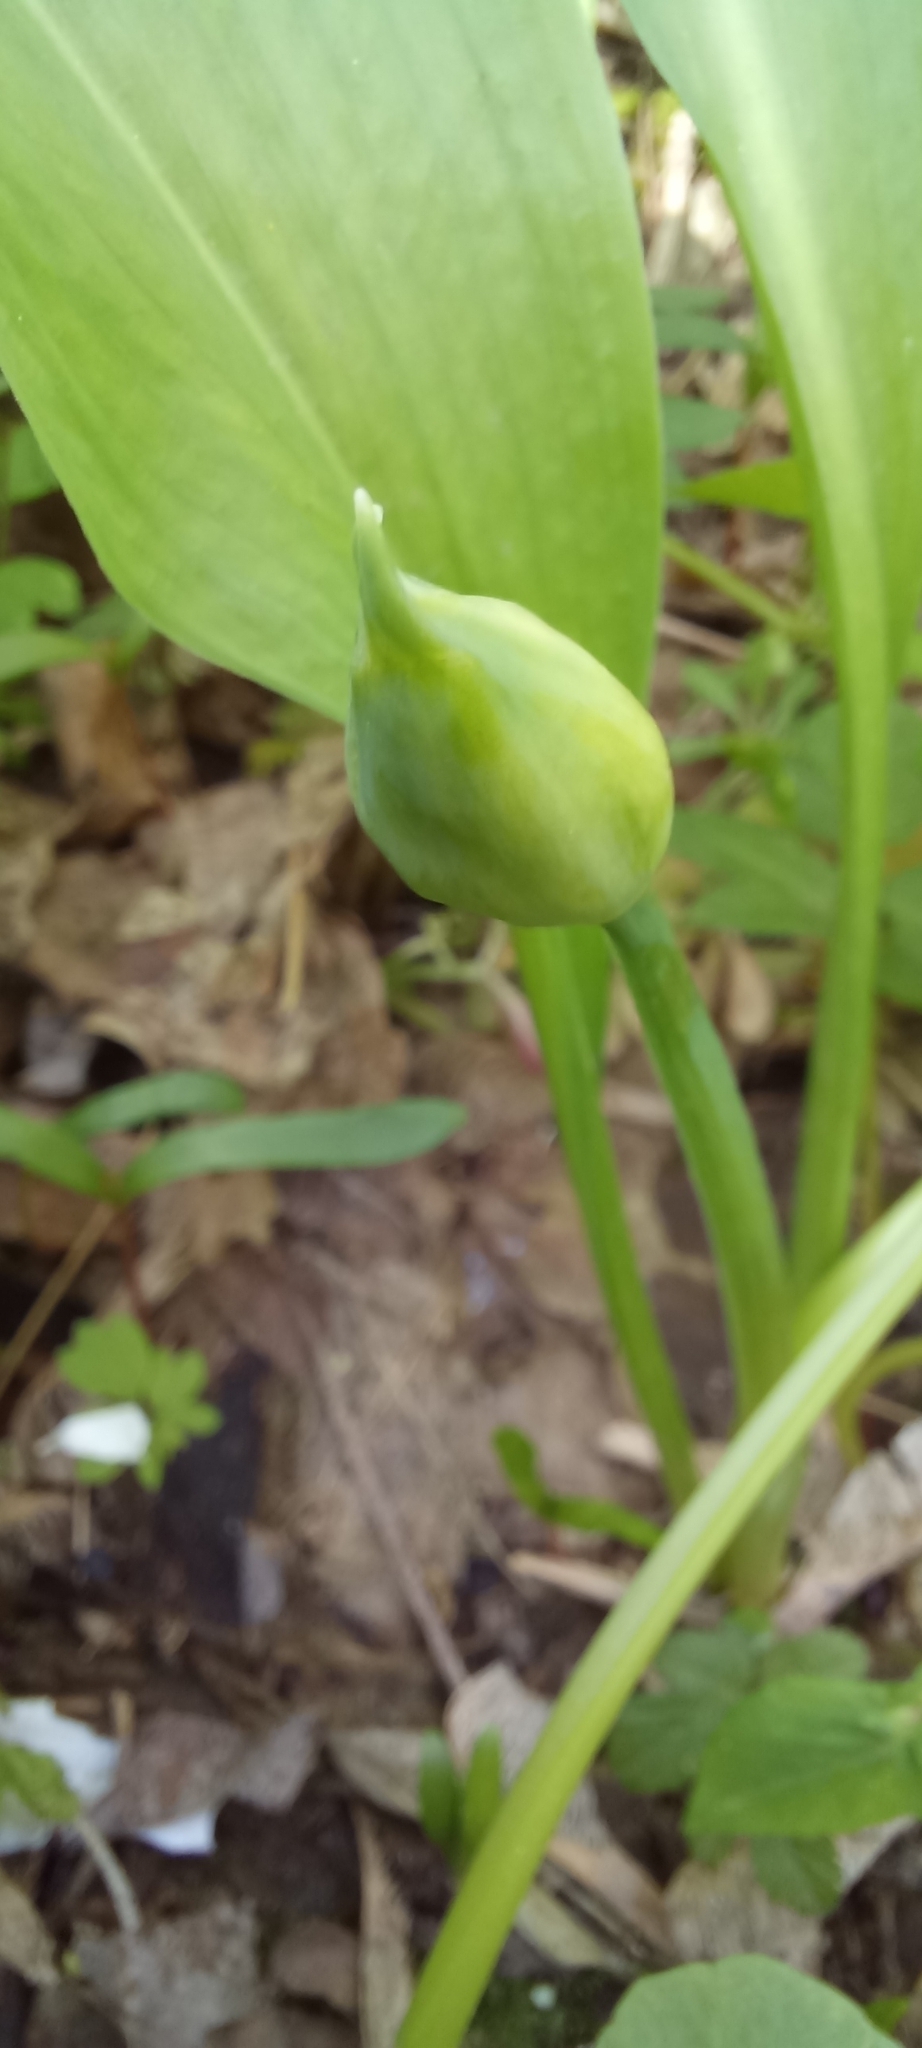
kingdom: Plantae
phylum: Tracheophyta
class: Liliopsida
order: Asparagales
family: Amaryllidaceae
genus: Allium
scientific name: Allium ursinum
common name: Ramsons
